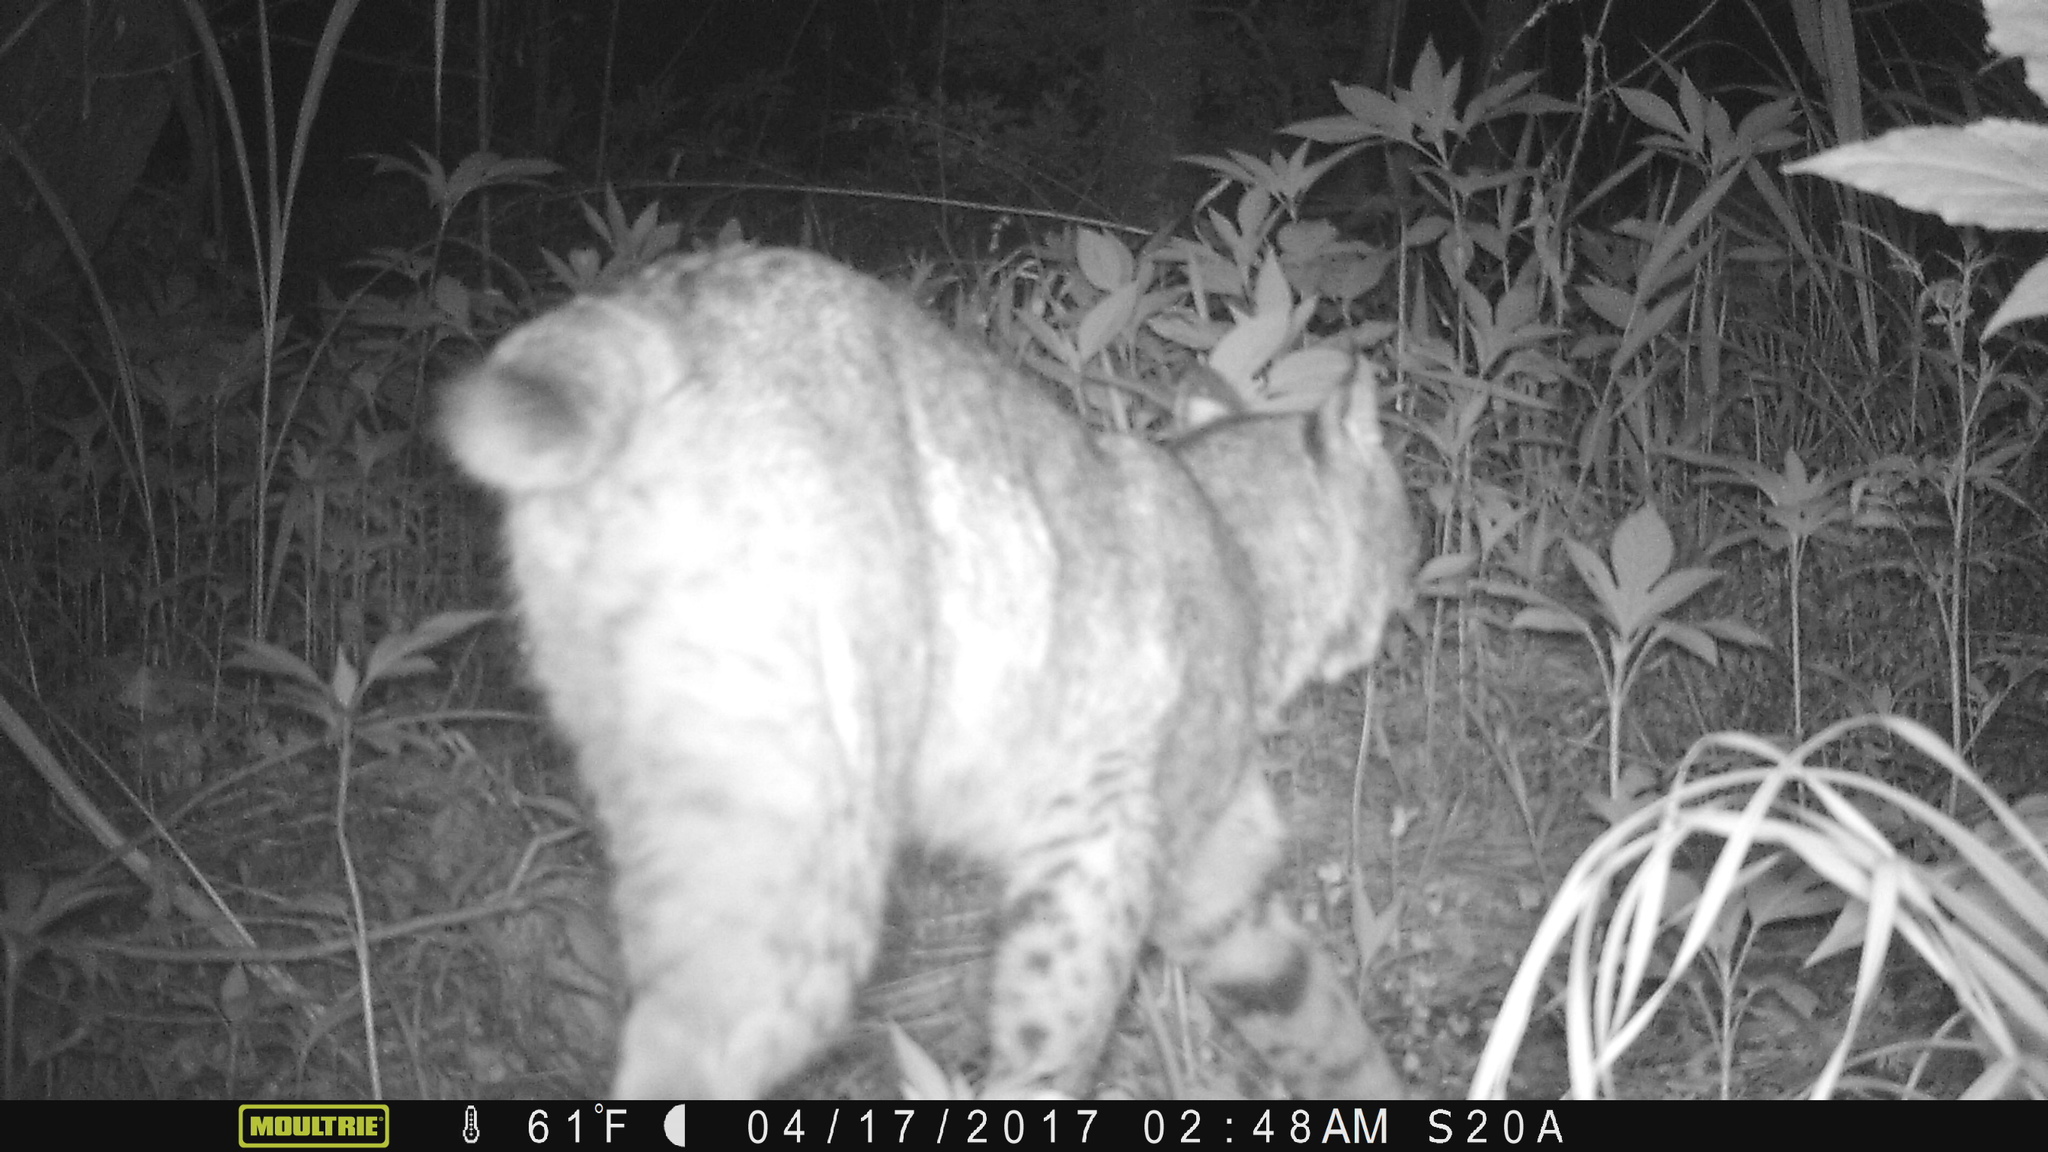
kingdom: Animalia
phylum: Chordata
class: Mammalia
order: Carnivora
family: Felidae
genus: Lynx
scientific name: Lynx rufus
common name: Bobcat
